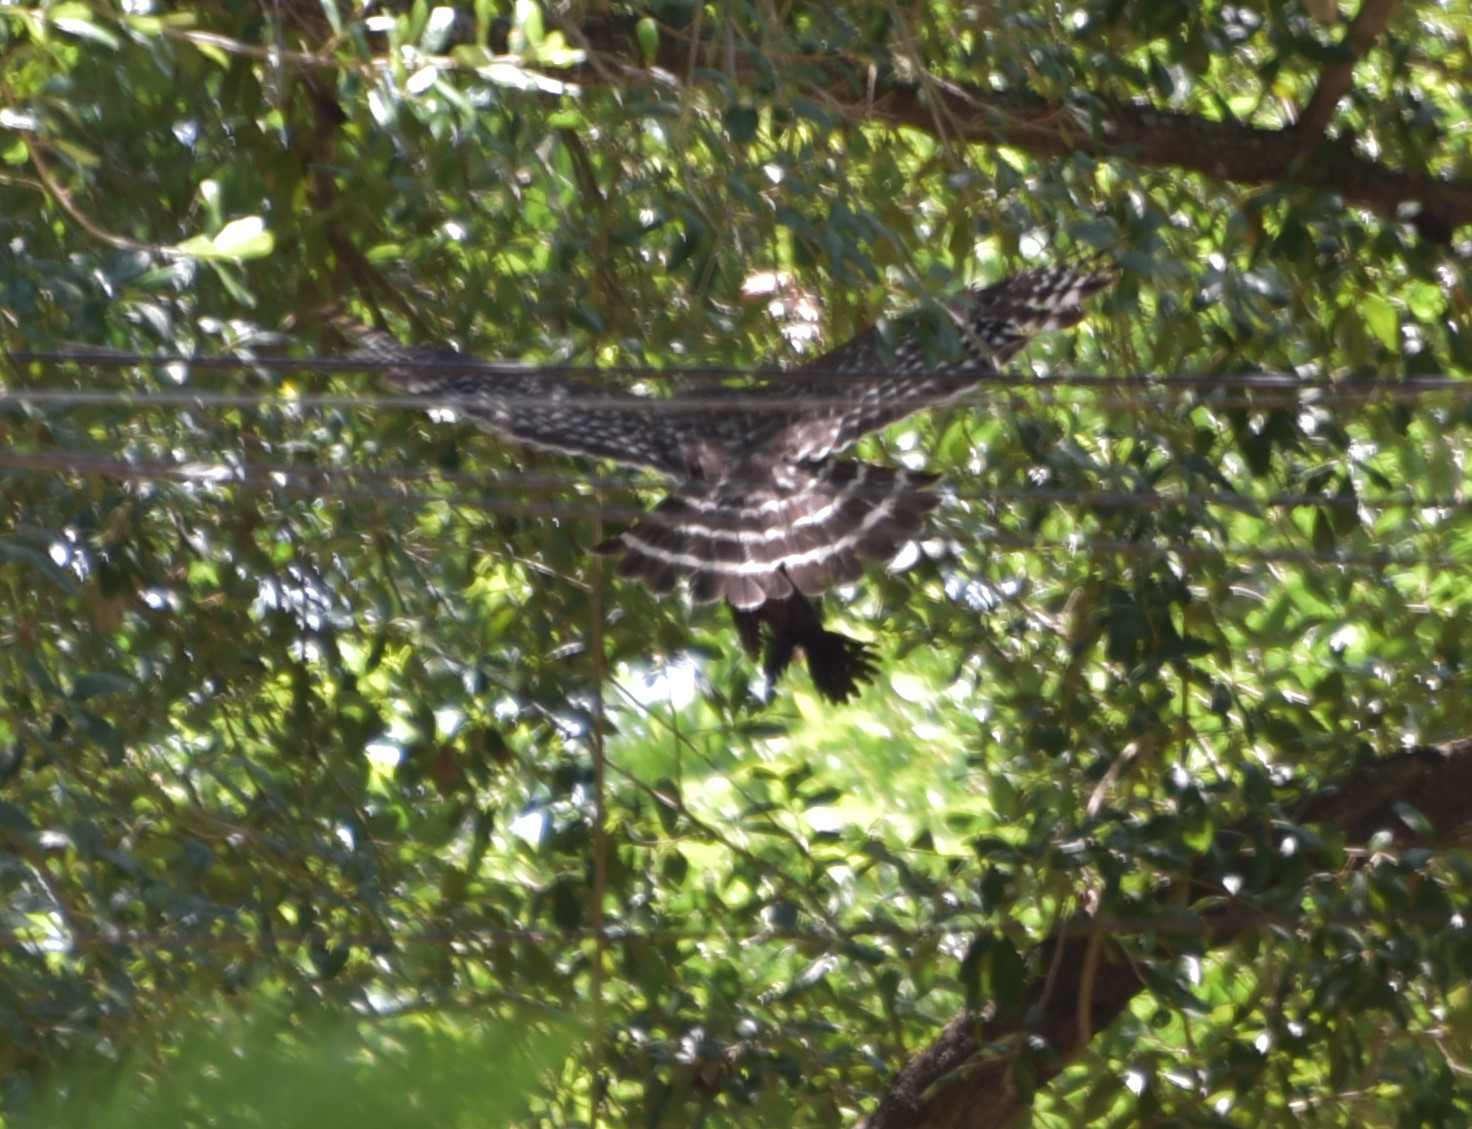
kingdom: Animalia
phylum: Chordata
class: Aves
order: Accipitriformes
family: Accipitridae
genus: Buteo
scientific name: Buteo lineatus
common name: Red-shouldered hawk
